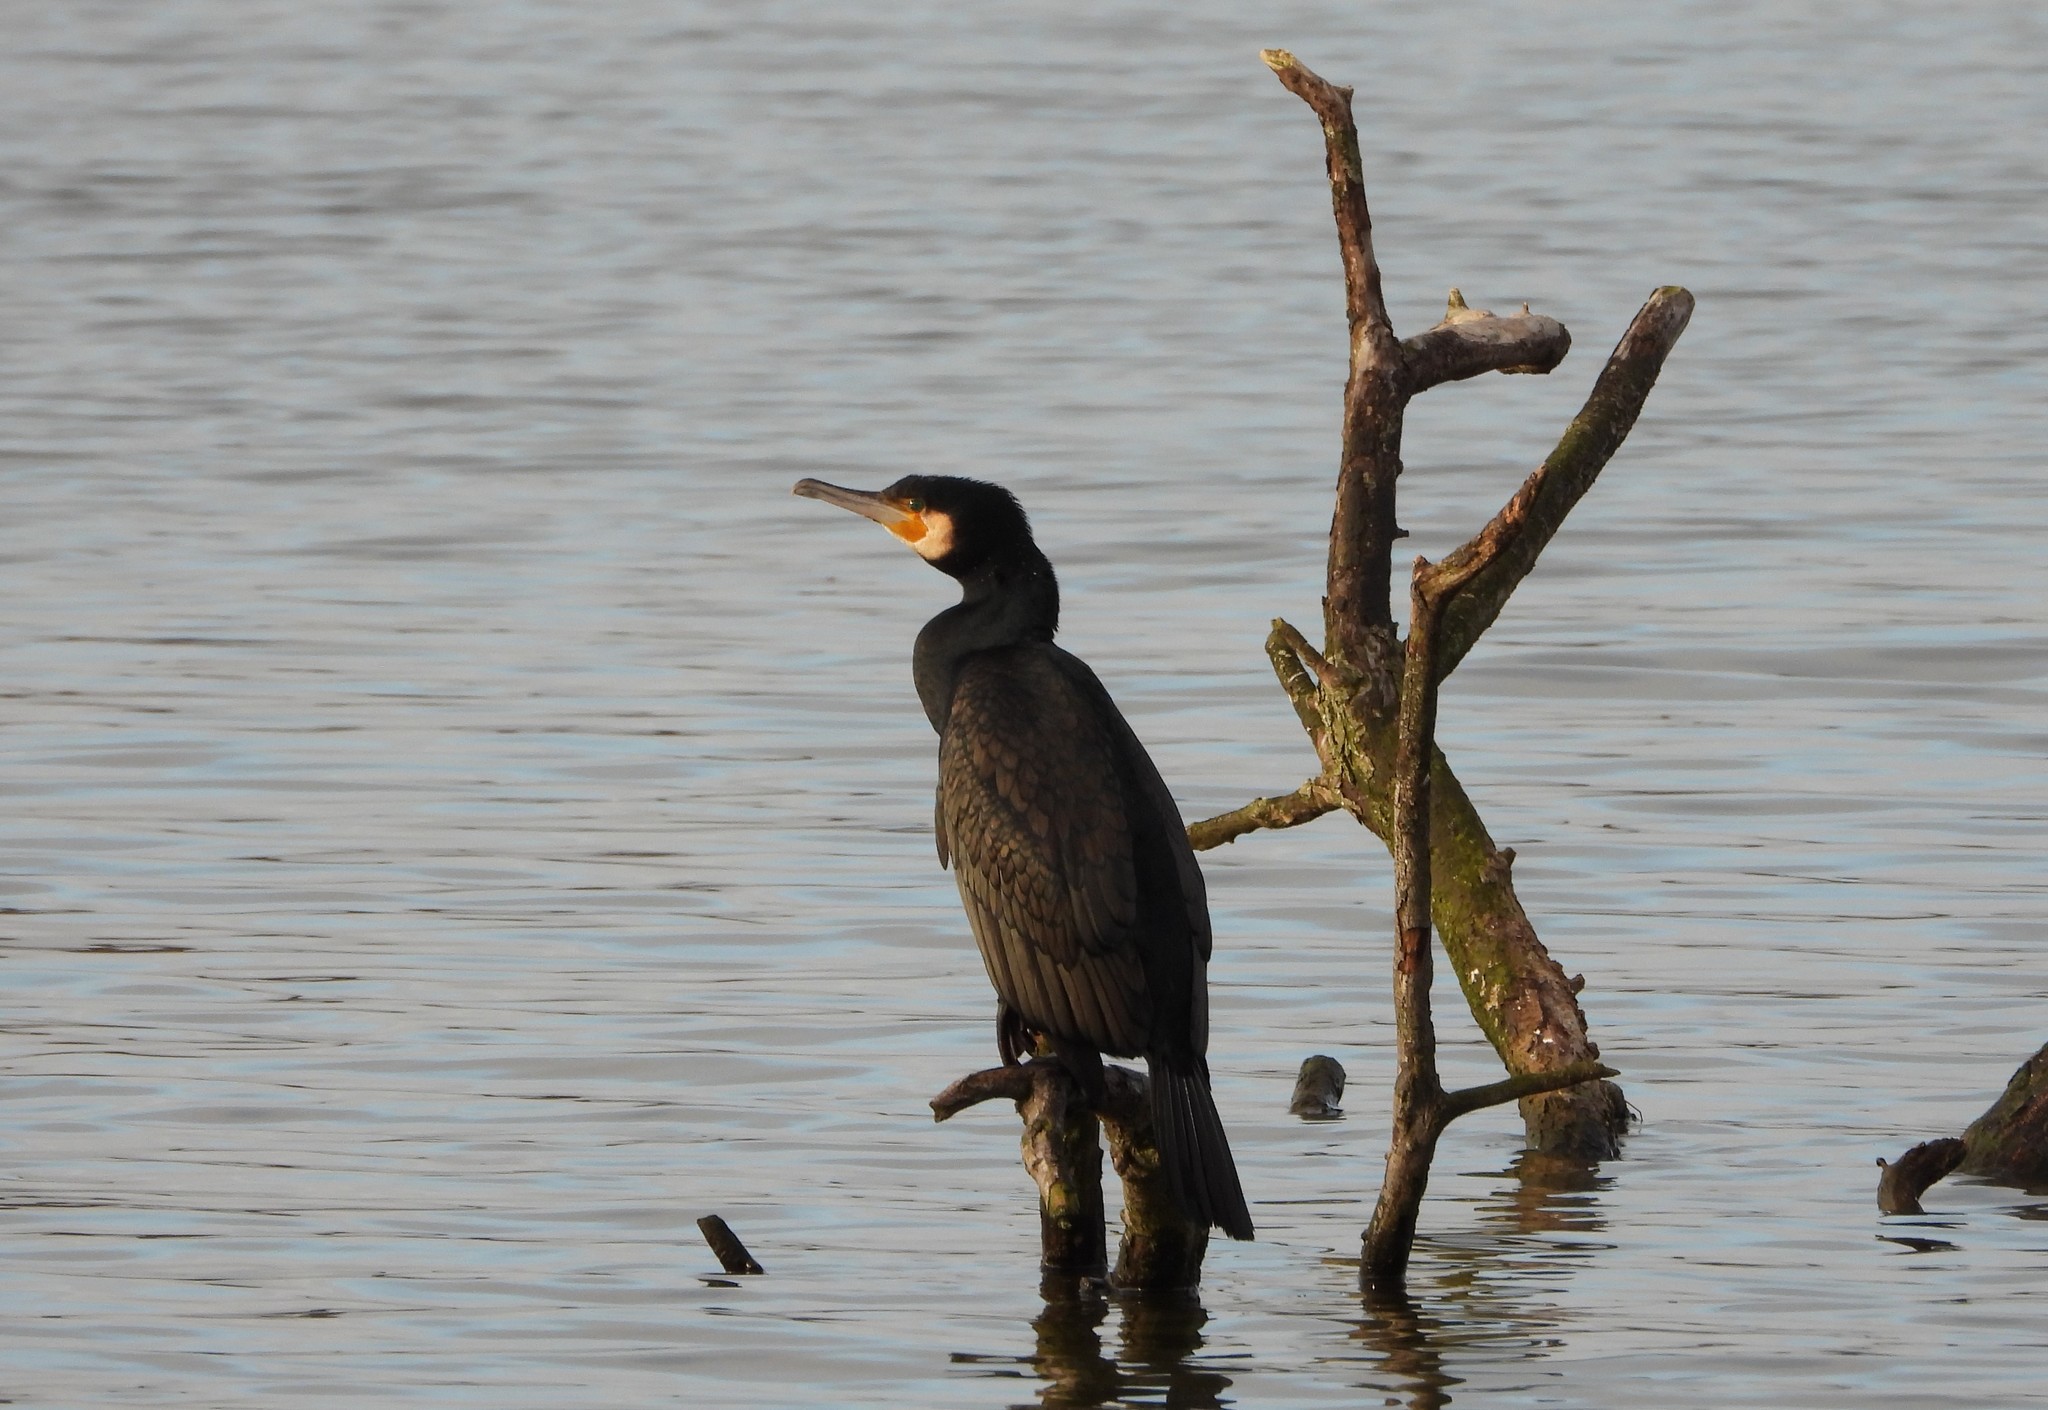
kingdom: Animalia
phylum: Chordata
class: Aves
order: Suliformes
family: Phalacrocoracidae
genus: Phalacrocorax
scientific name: Phalacrocorax carbo
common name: Great cormorant
